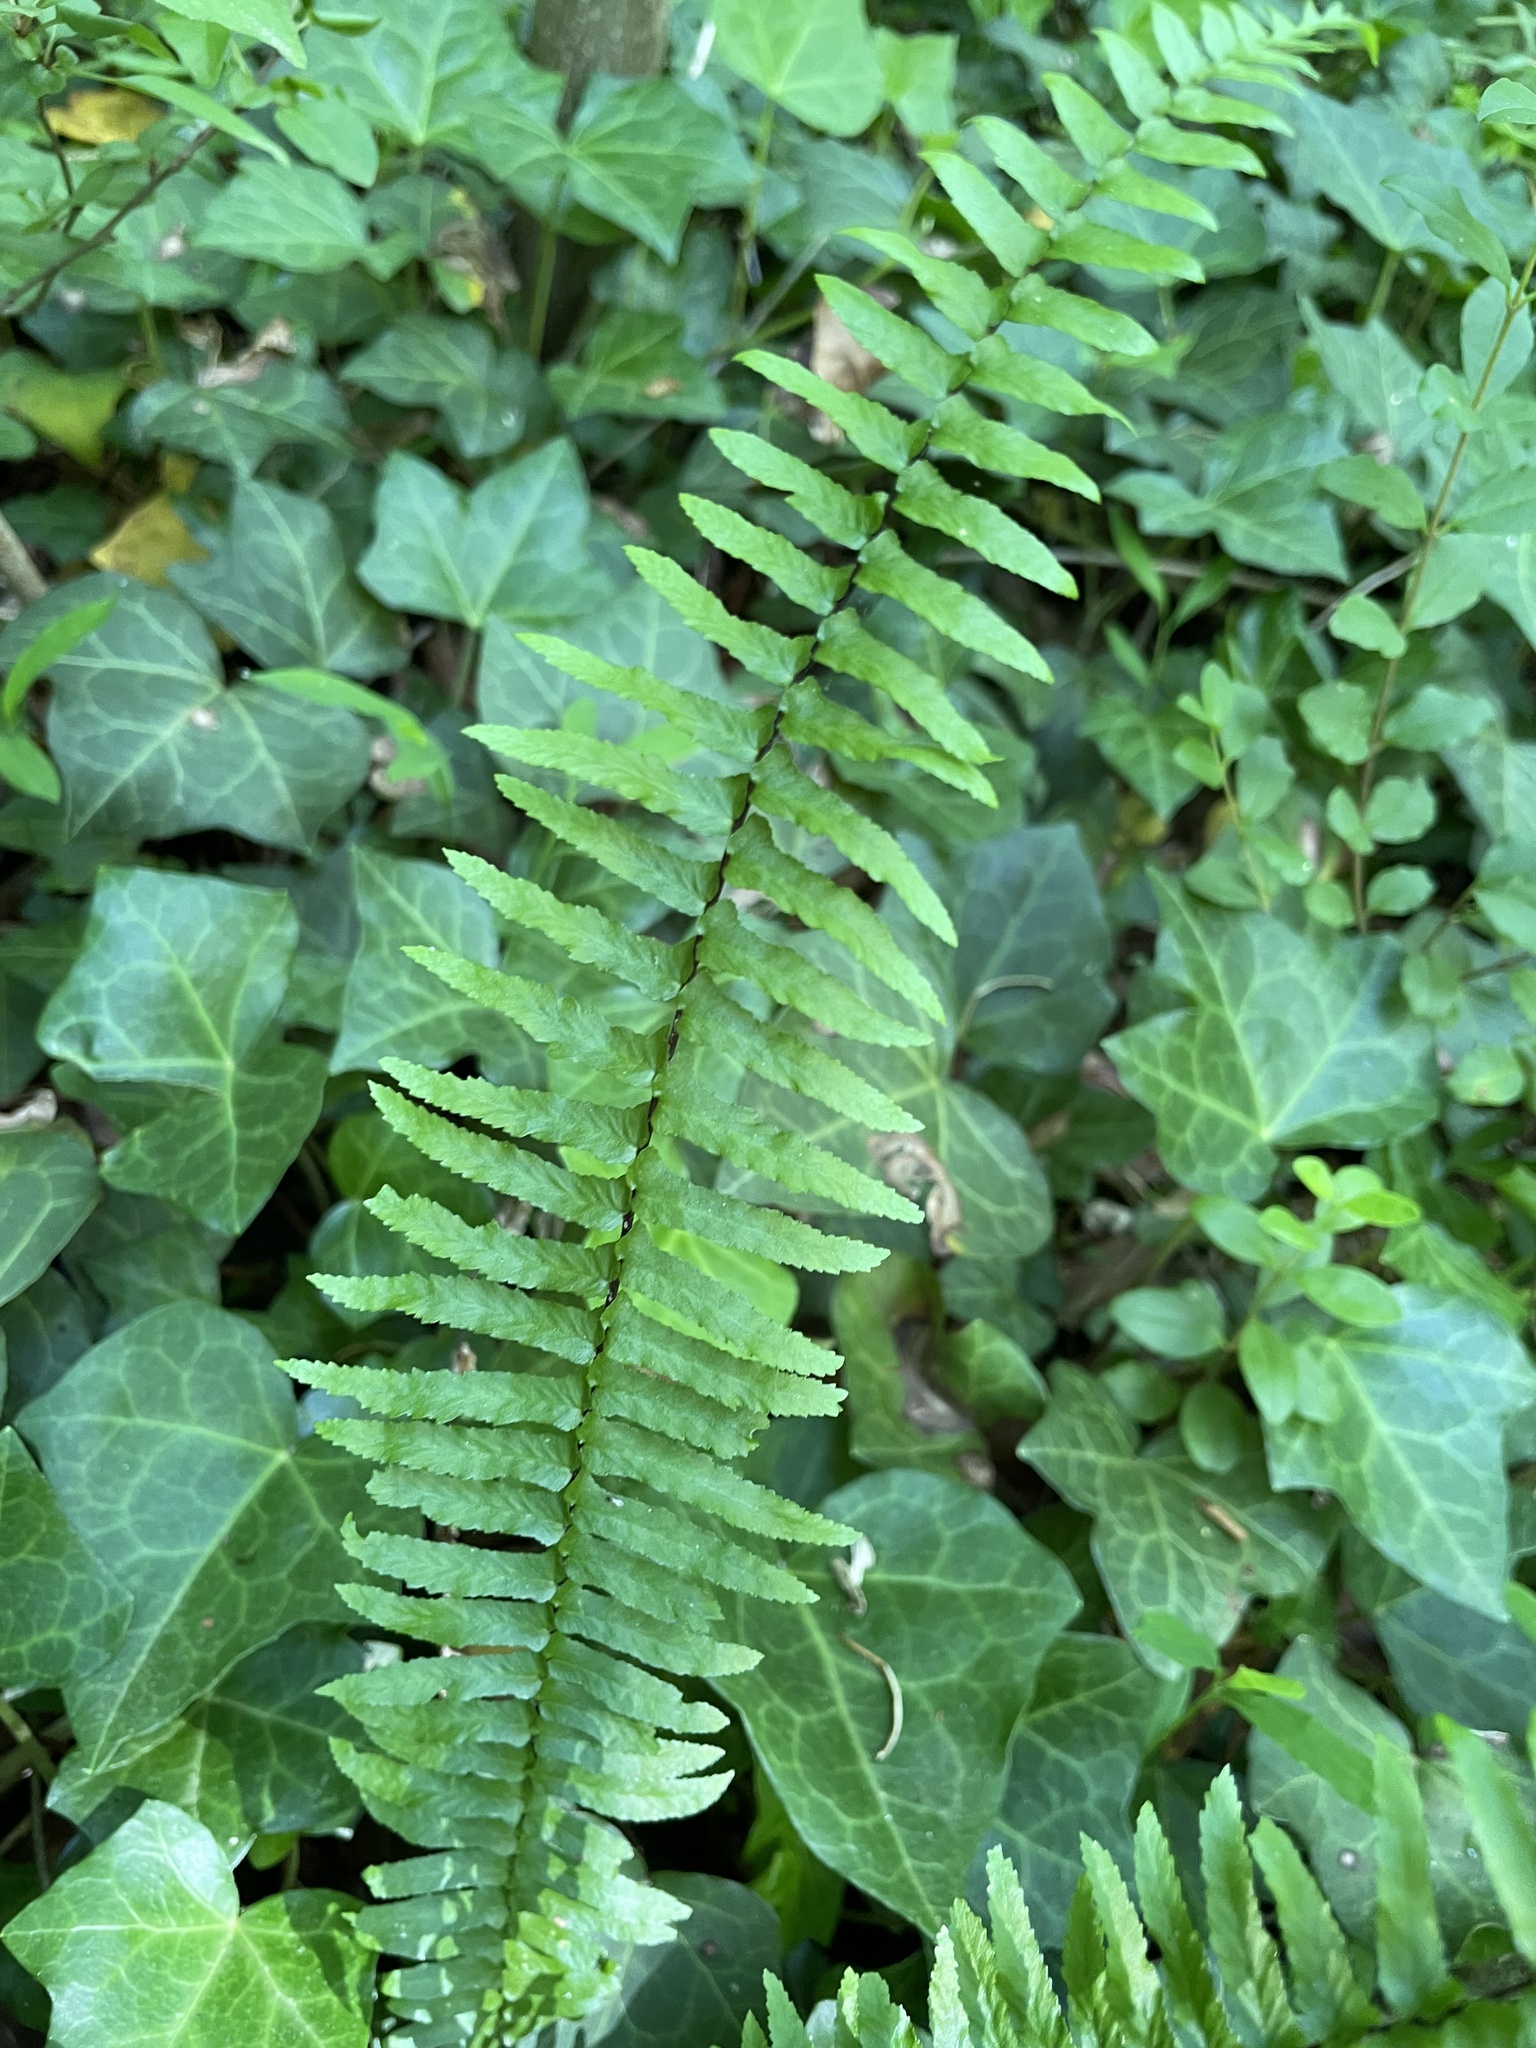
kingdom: Plantae
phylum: Tracheophyta
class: Polypodiopsida
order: Polypodiales
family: Aspleniaceae
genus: Asplenium
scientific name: Asplenium platyneuron
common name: Ebony spleenwort
